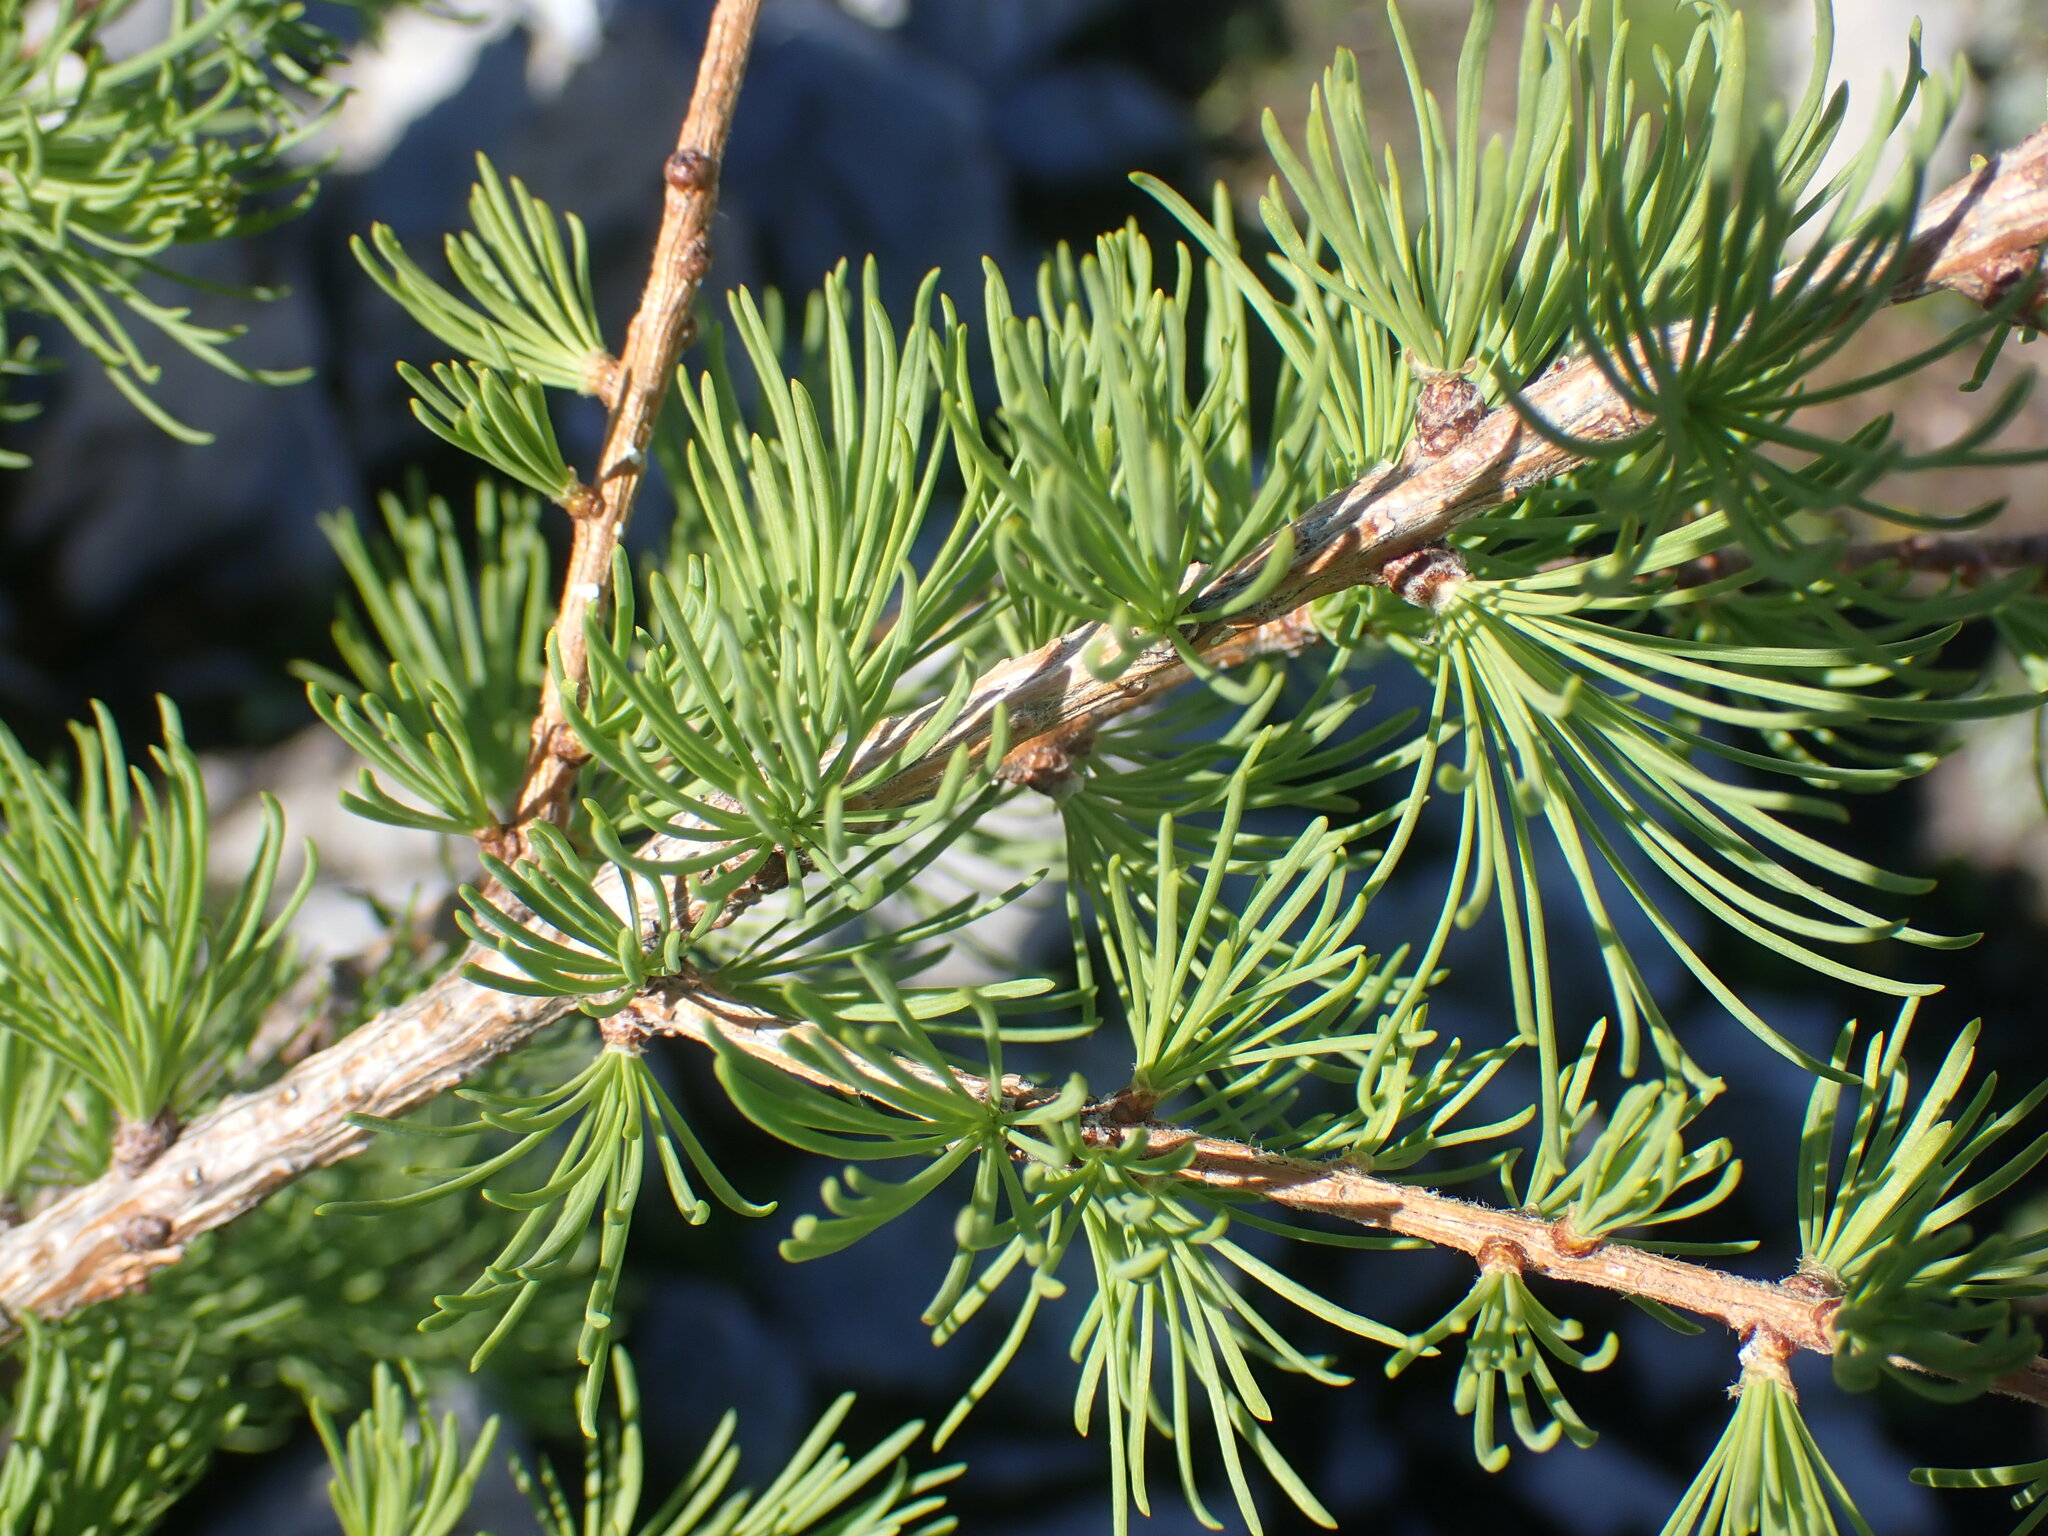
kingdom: Plantae
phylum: Tracheophyta
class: Pinopsida
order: Pinales
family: Pinaceae
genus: Larix
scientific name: Larix lyallii
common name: Alpine larch
